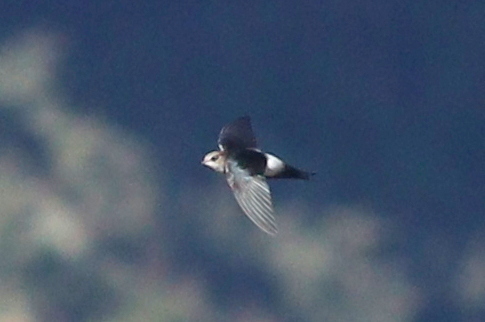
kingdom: Animalia
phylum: Chordata
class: Aves
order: Apodiformes
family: Apodidae
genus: Apus
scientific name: Apus horus
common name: Horus swift
